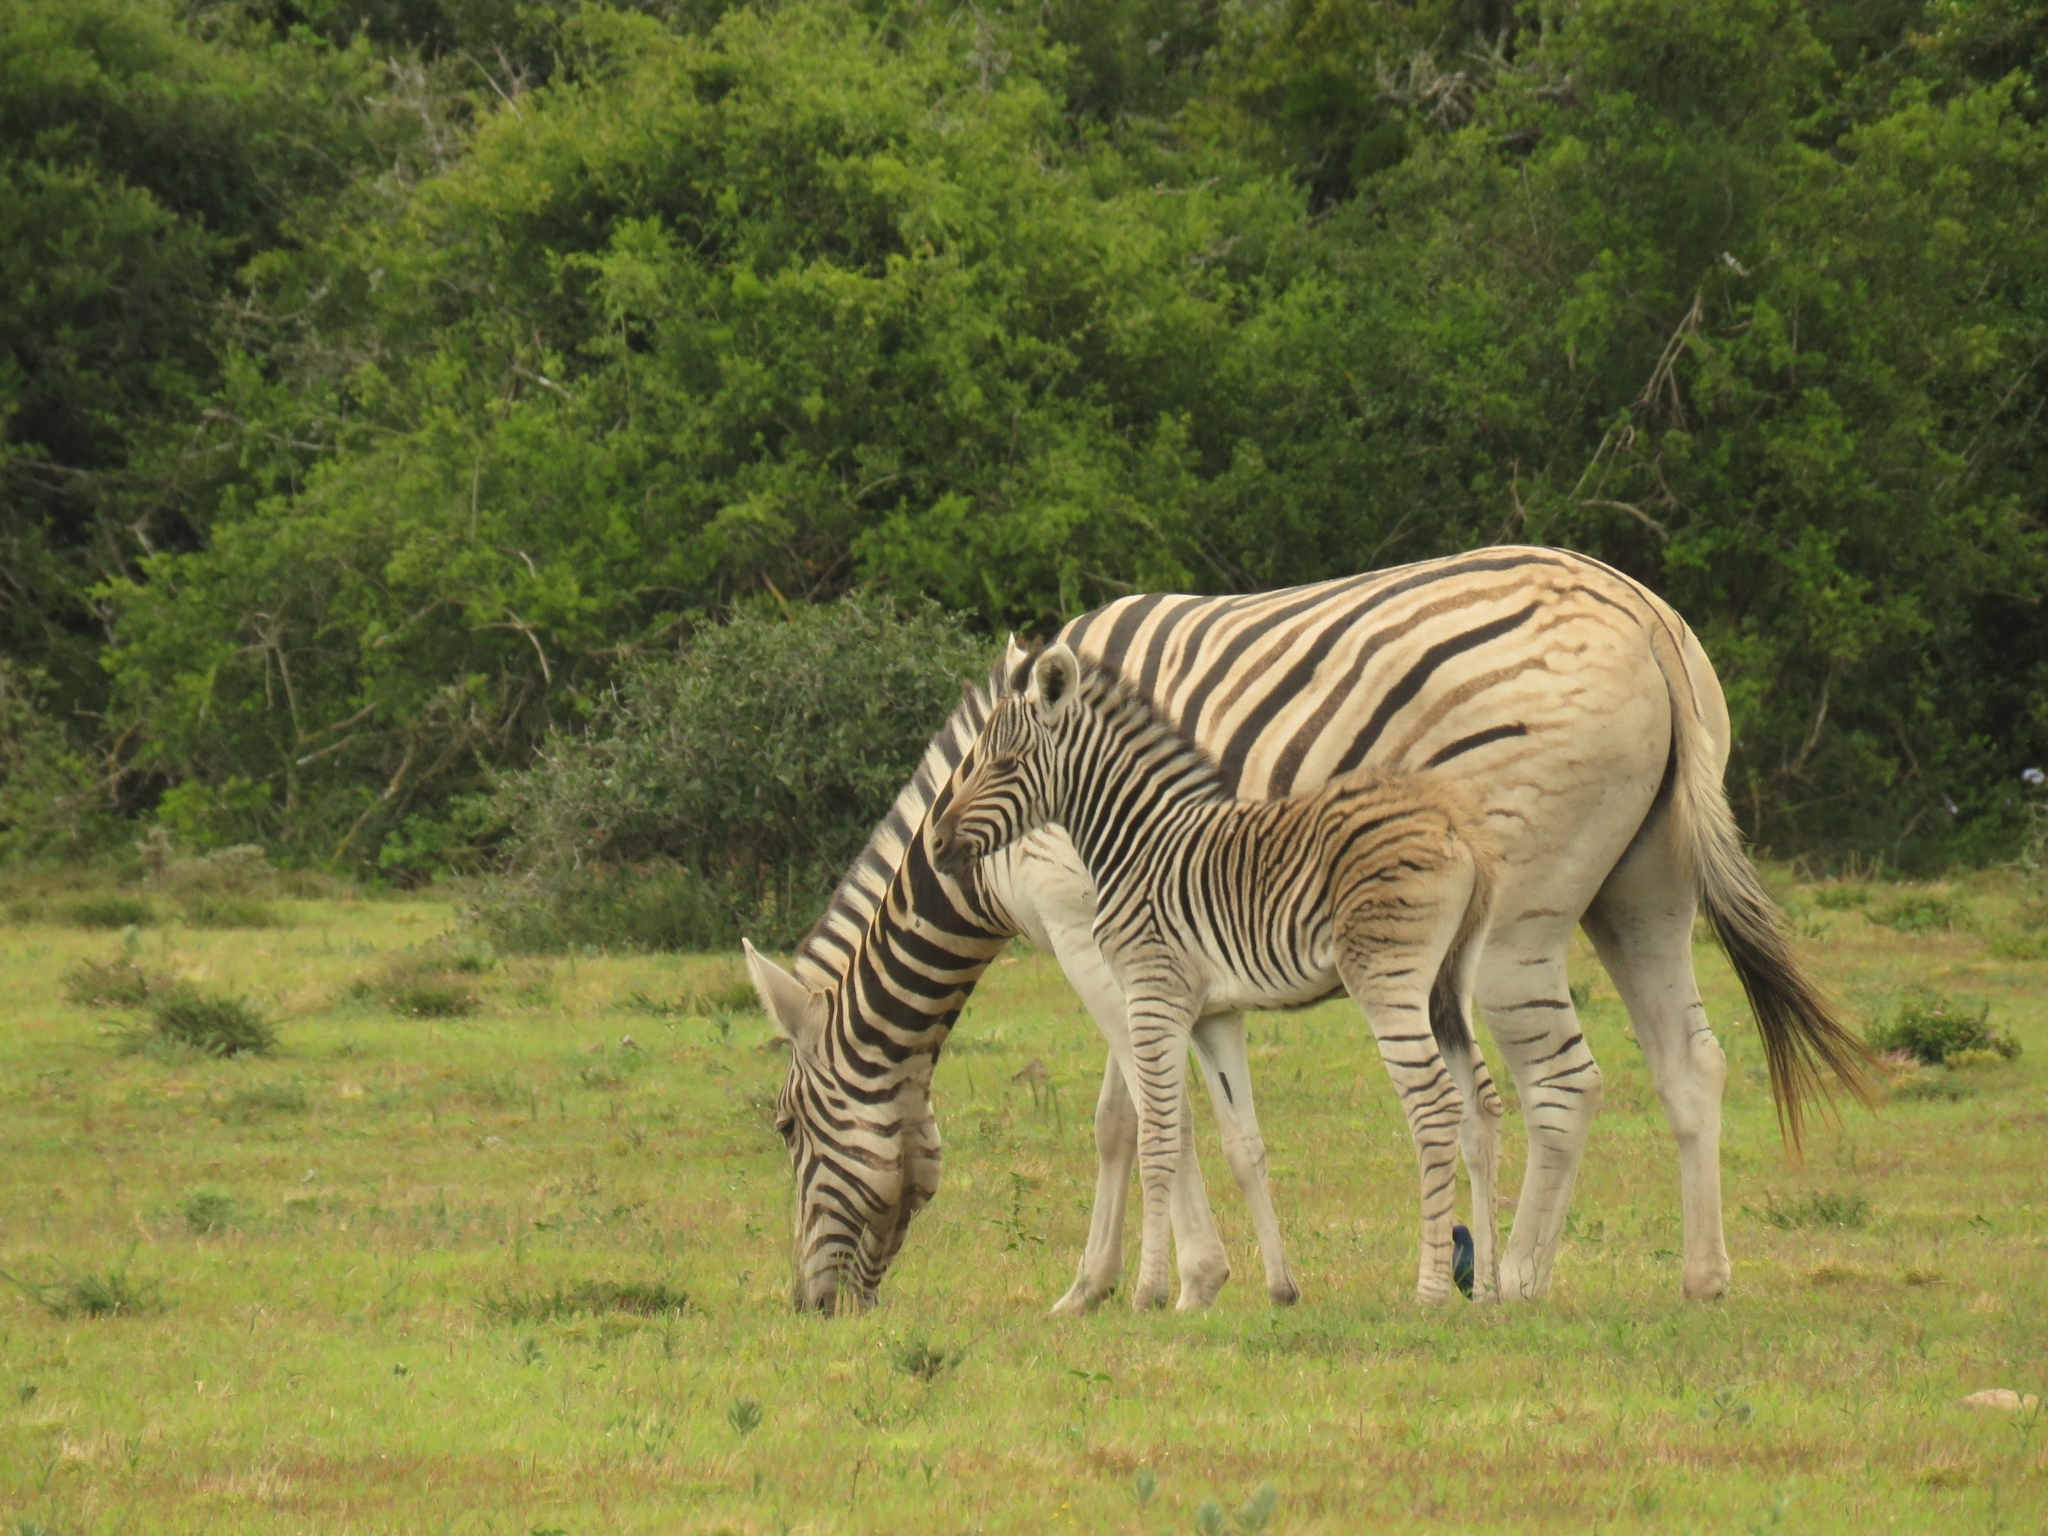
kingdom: Animalia
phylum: Chordata
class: Mammalia
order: Perissodactyla
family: Equidae
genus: Equus
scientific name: Equus quagga
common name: Plains zebra
